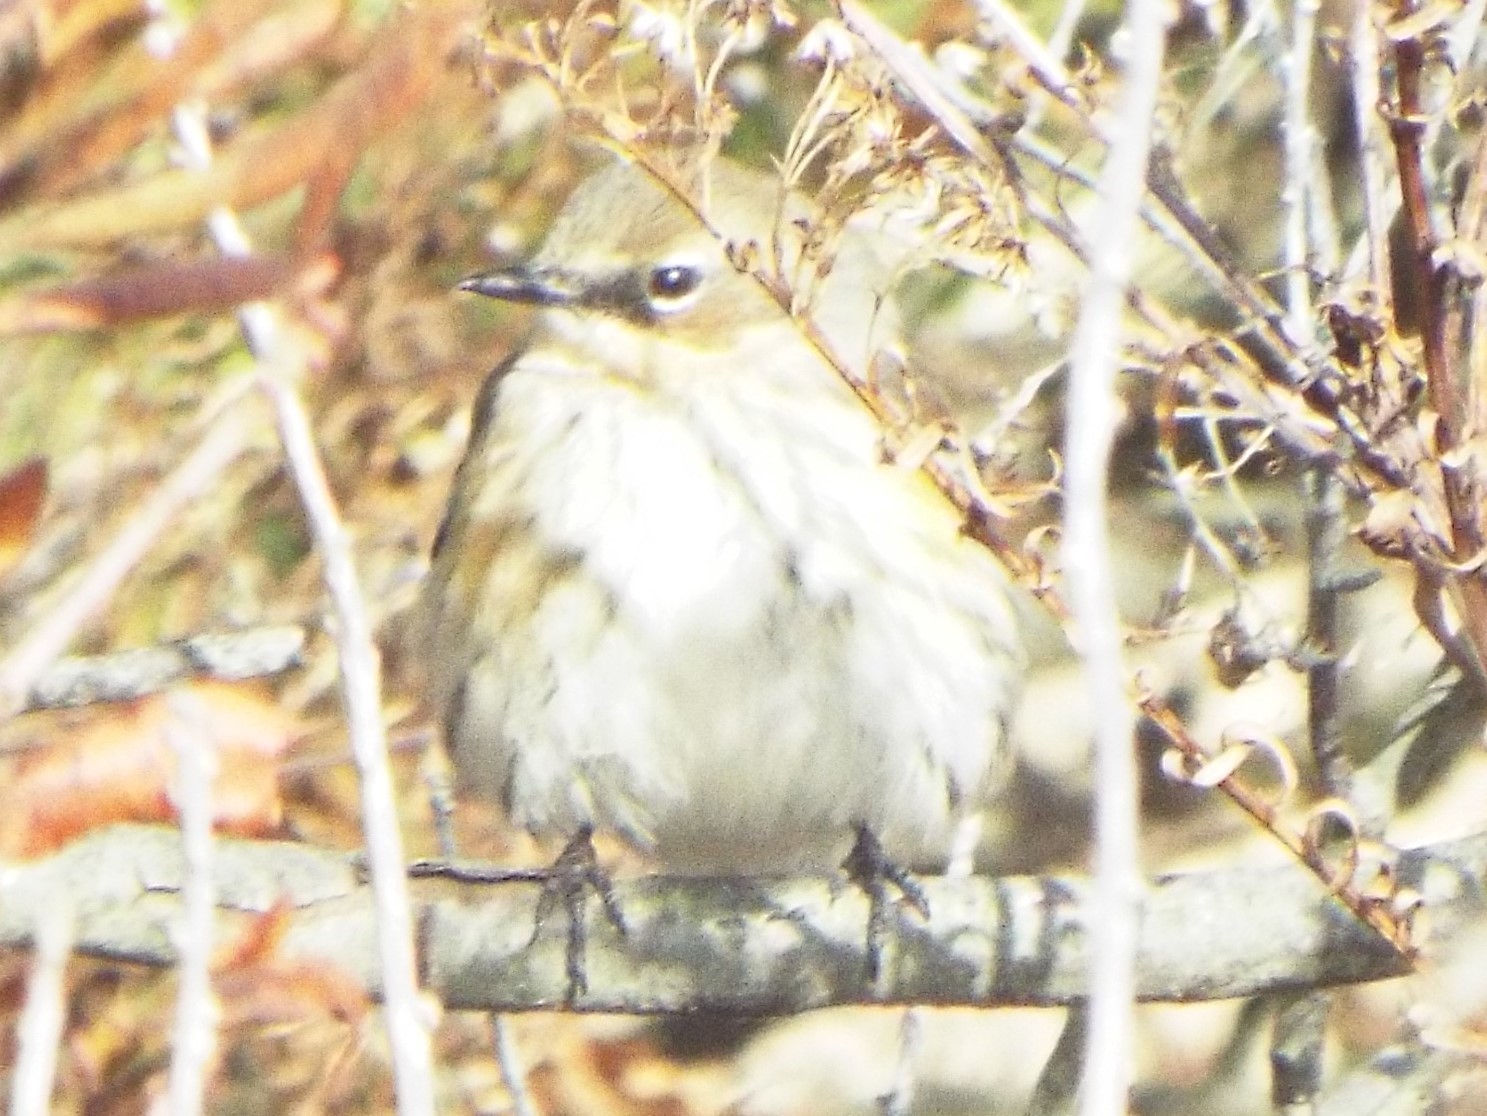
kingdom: Animalia
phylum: Chordata
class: Aves
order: Passeriformes
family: Parulidae
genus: Setophaga
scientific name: Setophaga coronata
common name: Myrtle warbler
